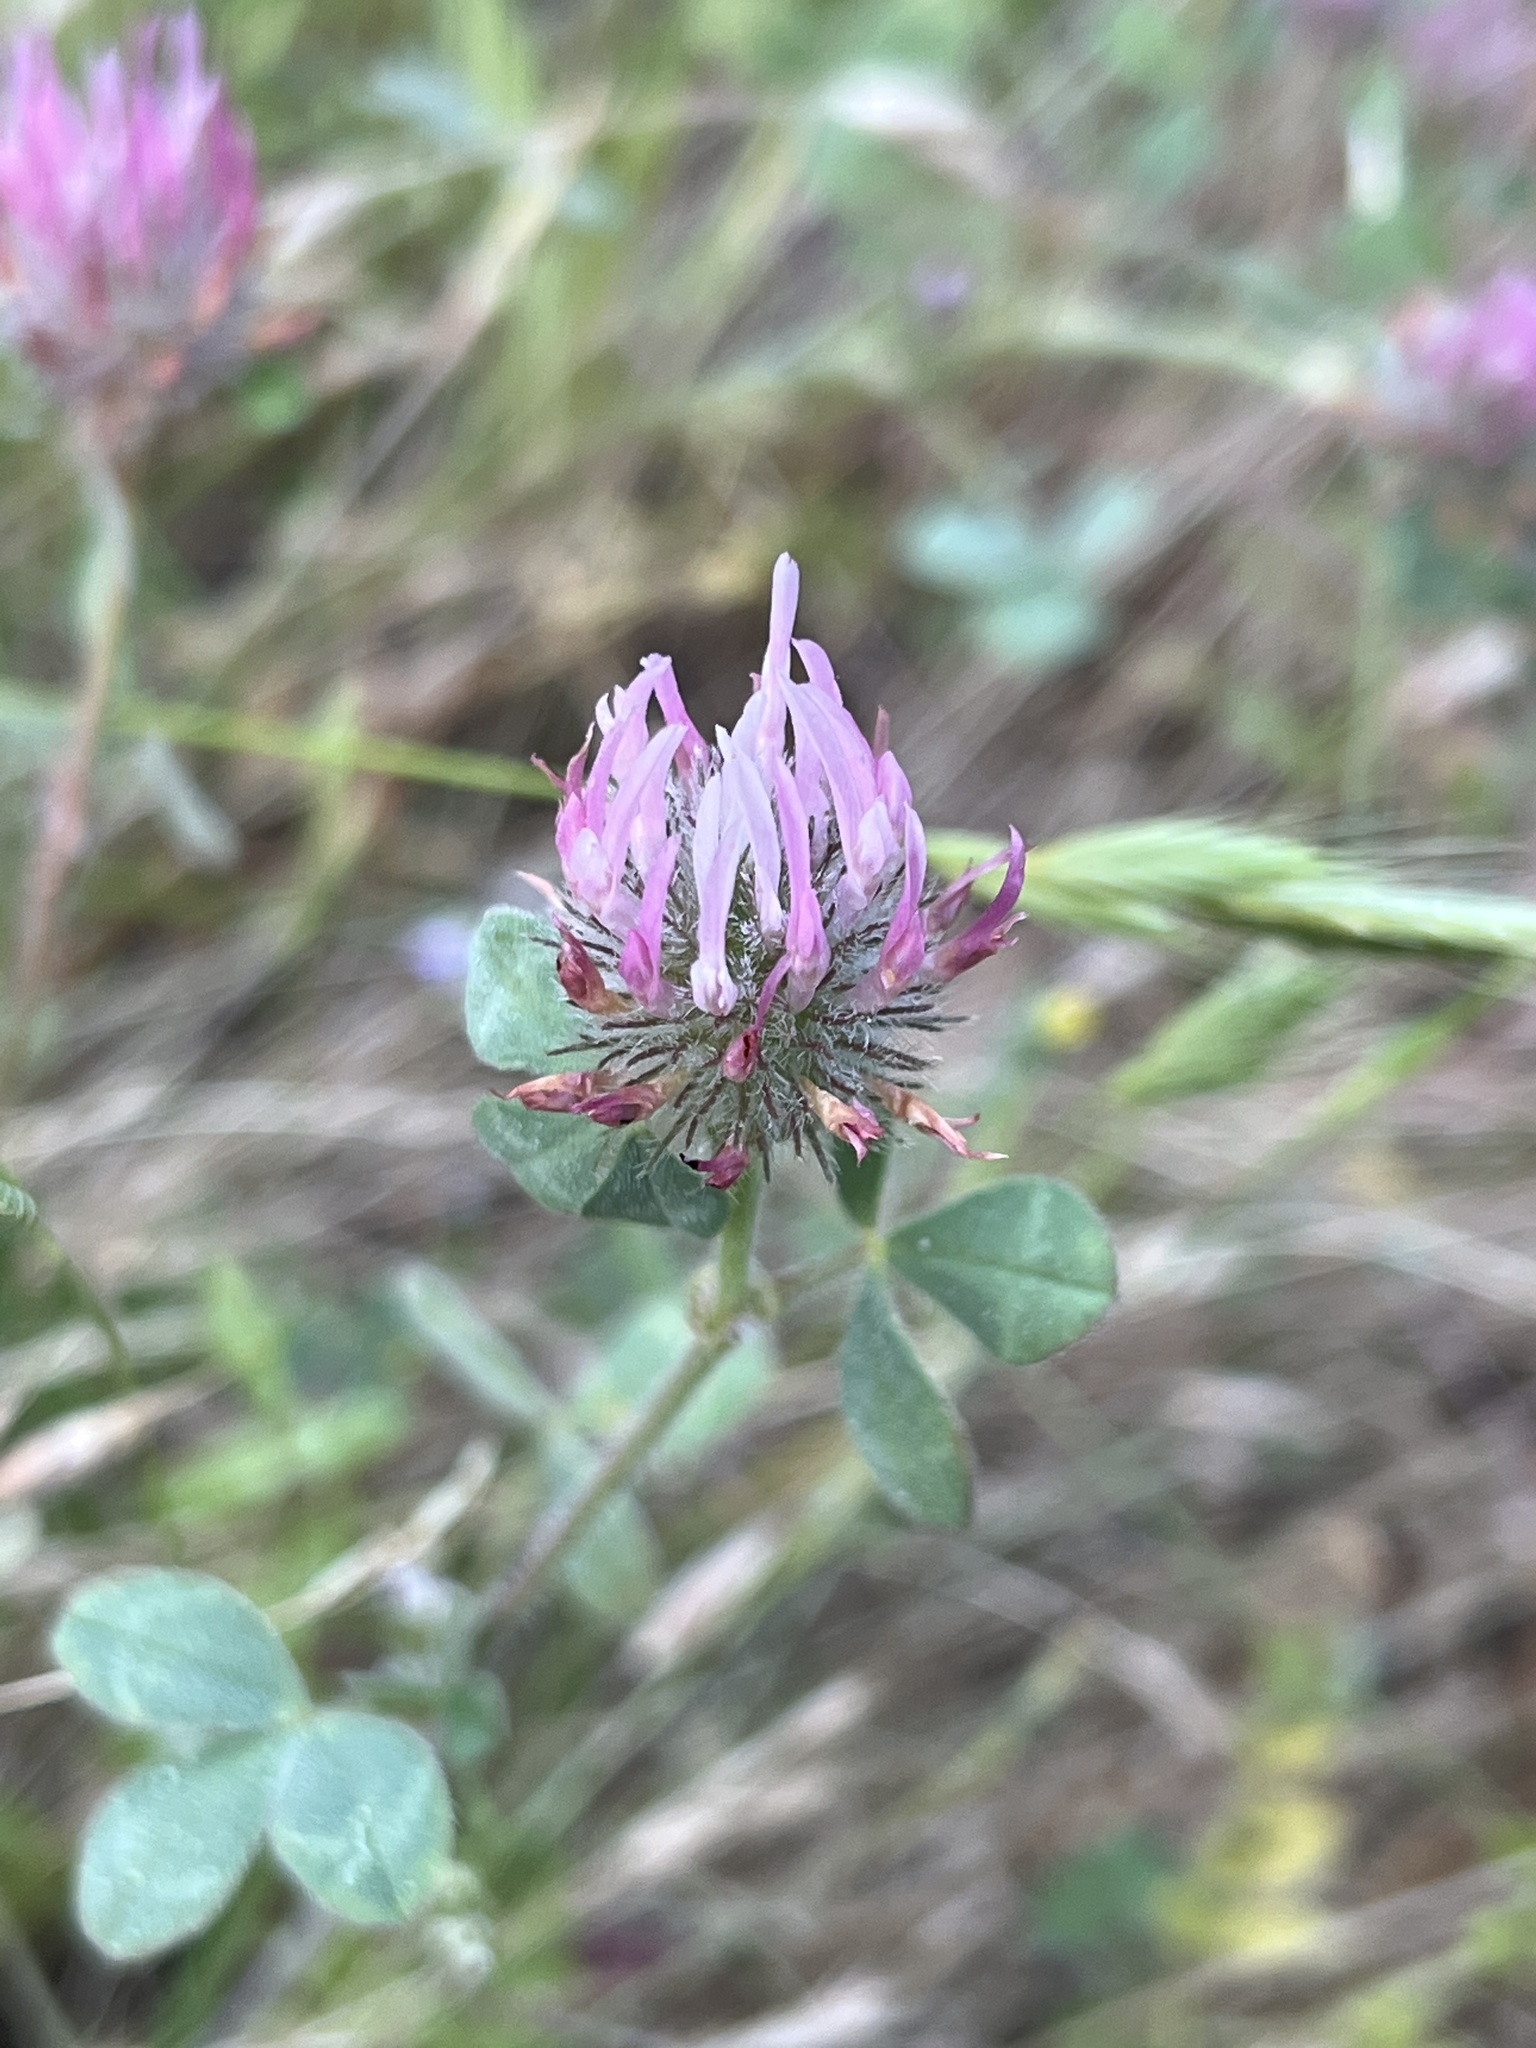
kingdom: Plantae
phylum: Tracheophyta
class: Magnoliopsida
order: Fabales
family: Fabaceae
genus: Trifolium
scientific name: Trifolium hirtum
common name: Rose clover
